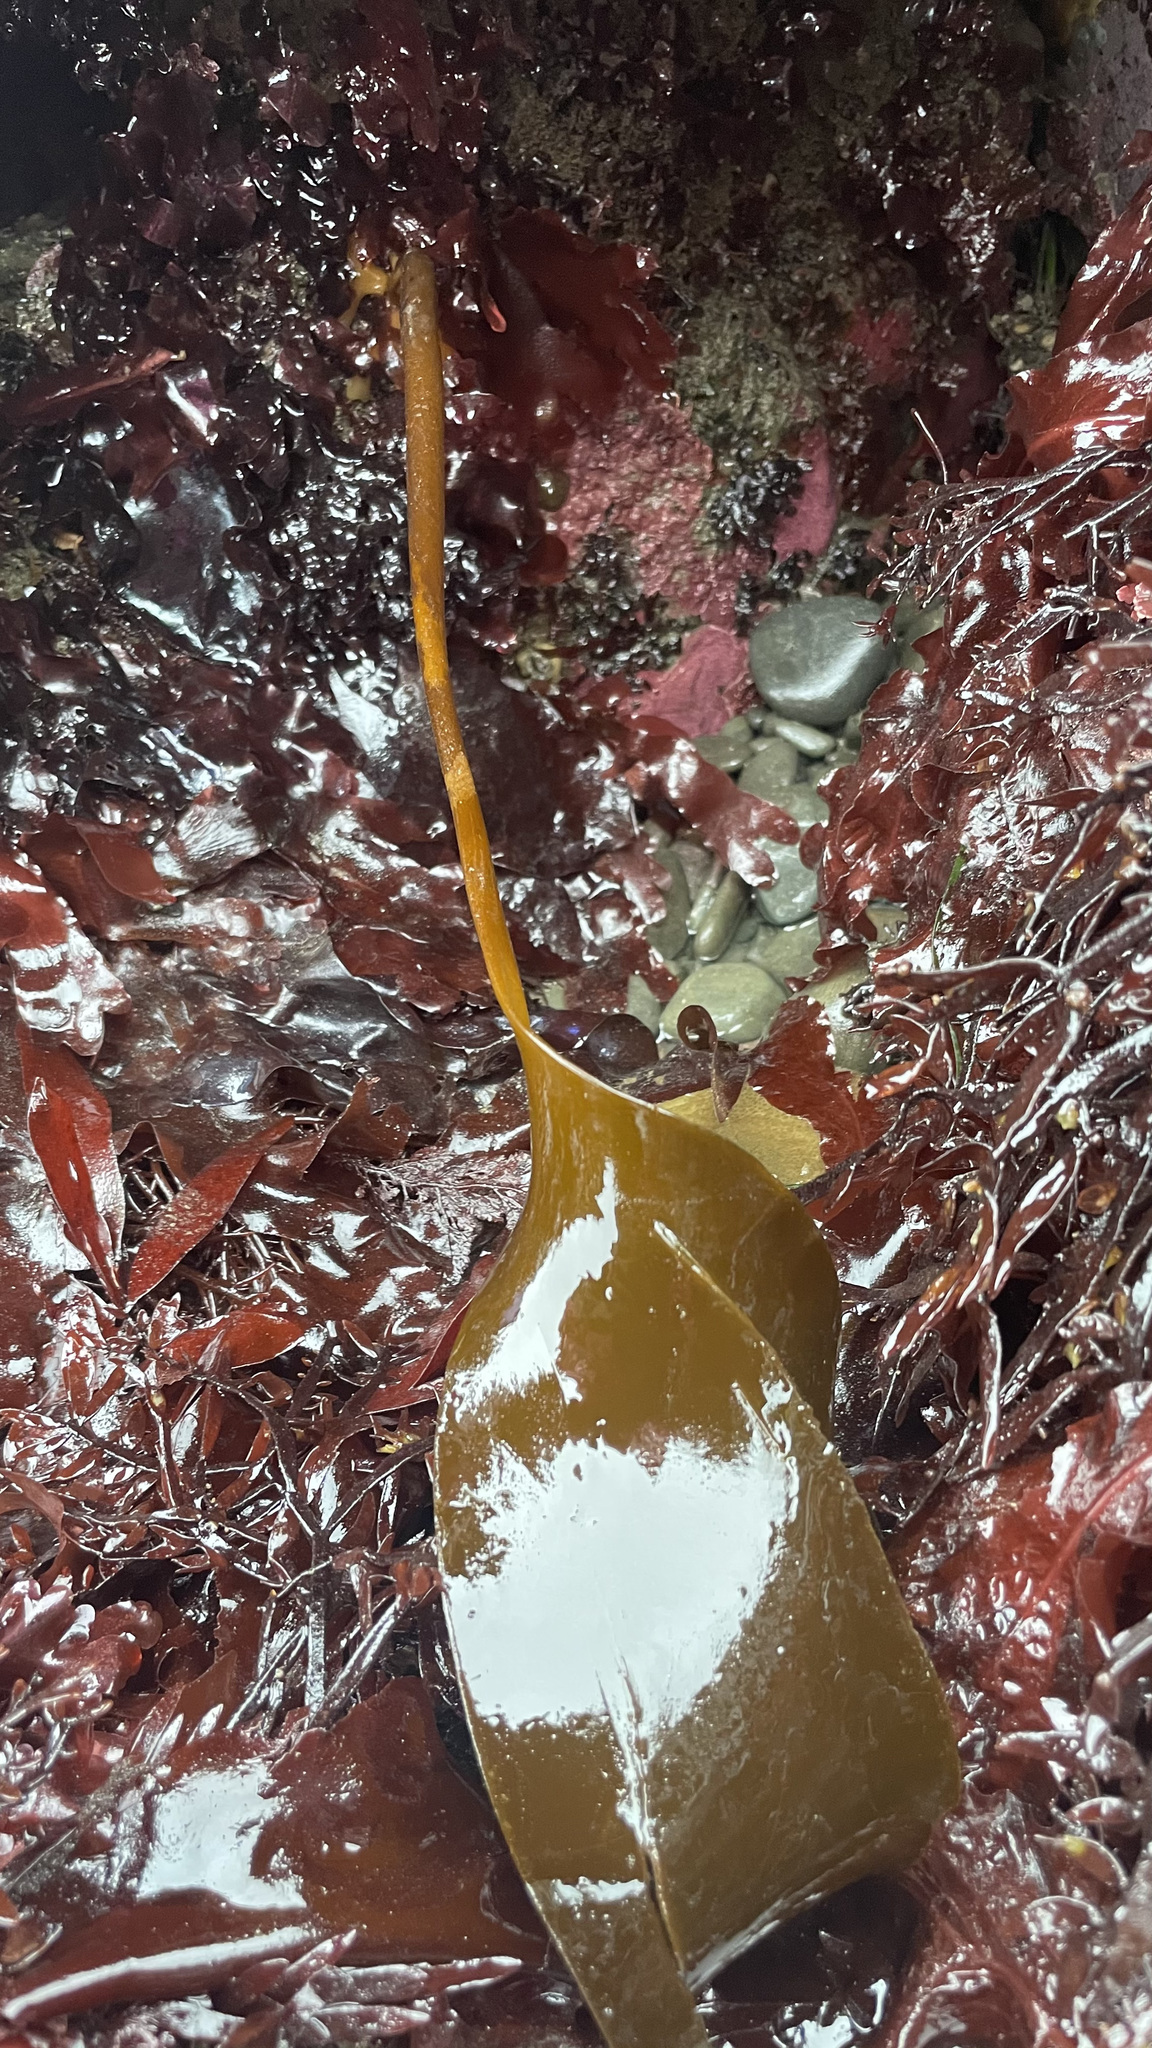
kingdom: Chromista
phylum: Ochrophyta
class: Phaeophyceae
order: Laminariales
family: Laminariaceae
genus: Laminaria
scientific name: Laminaria setchellii
